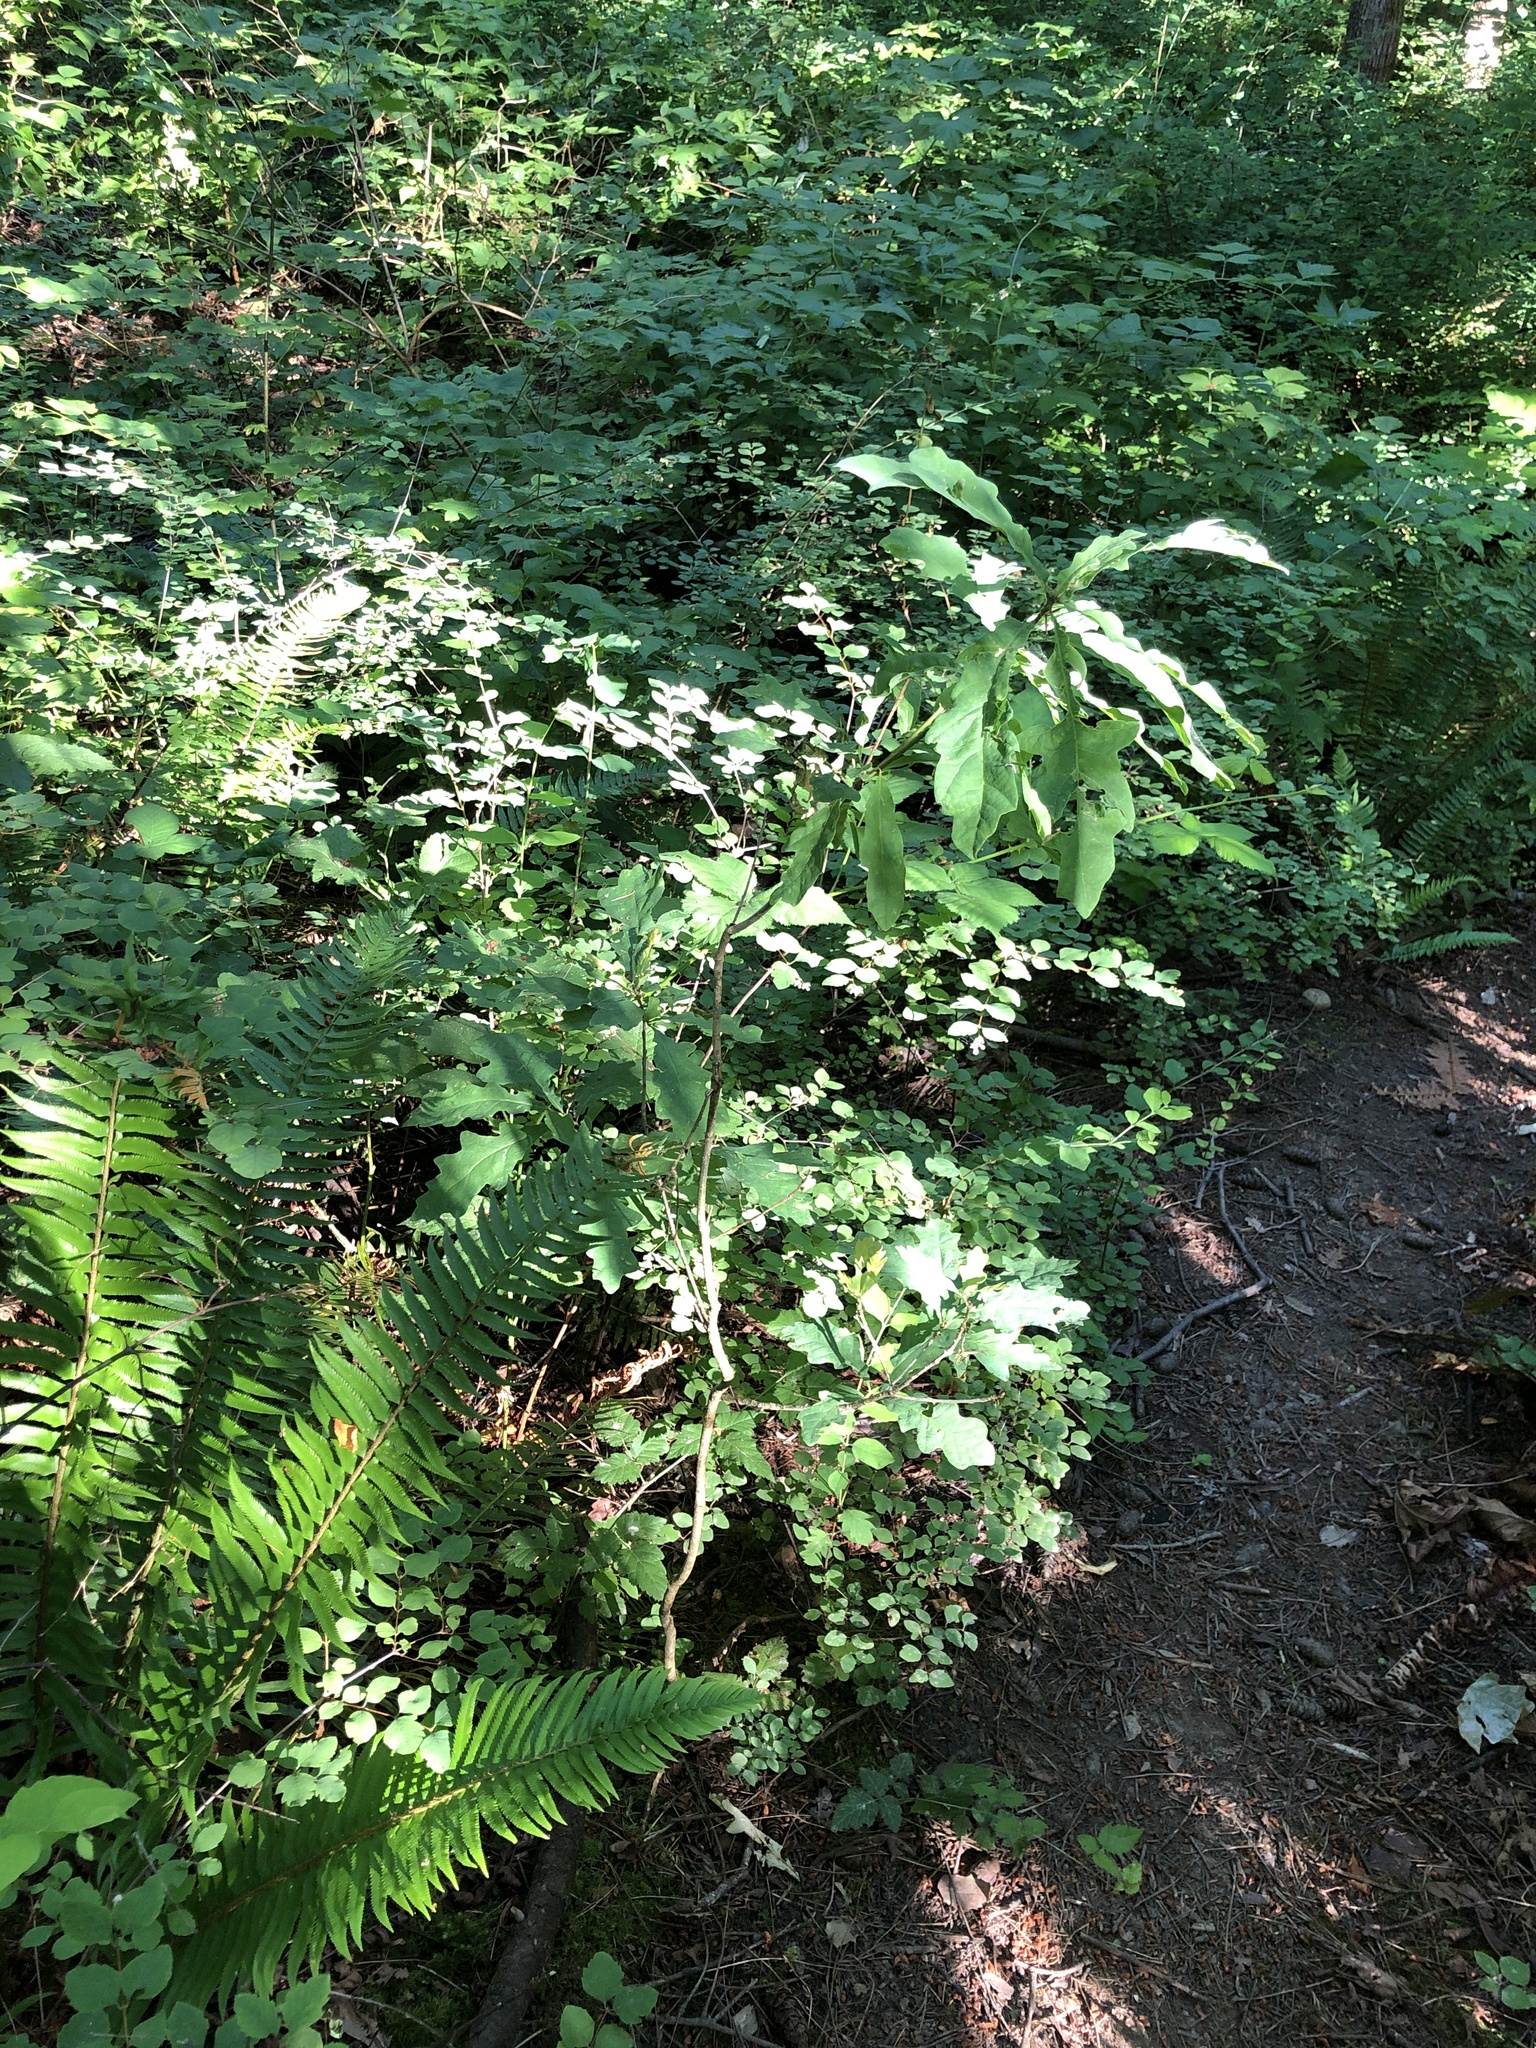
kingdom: Plantae
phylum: Tracheophyta
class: Magnoliopsida
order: Fagales
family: Fagaceae
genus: Quercus
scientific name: Quercus robur
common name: Pedunculate oak
